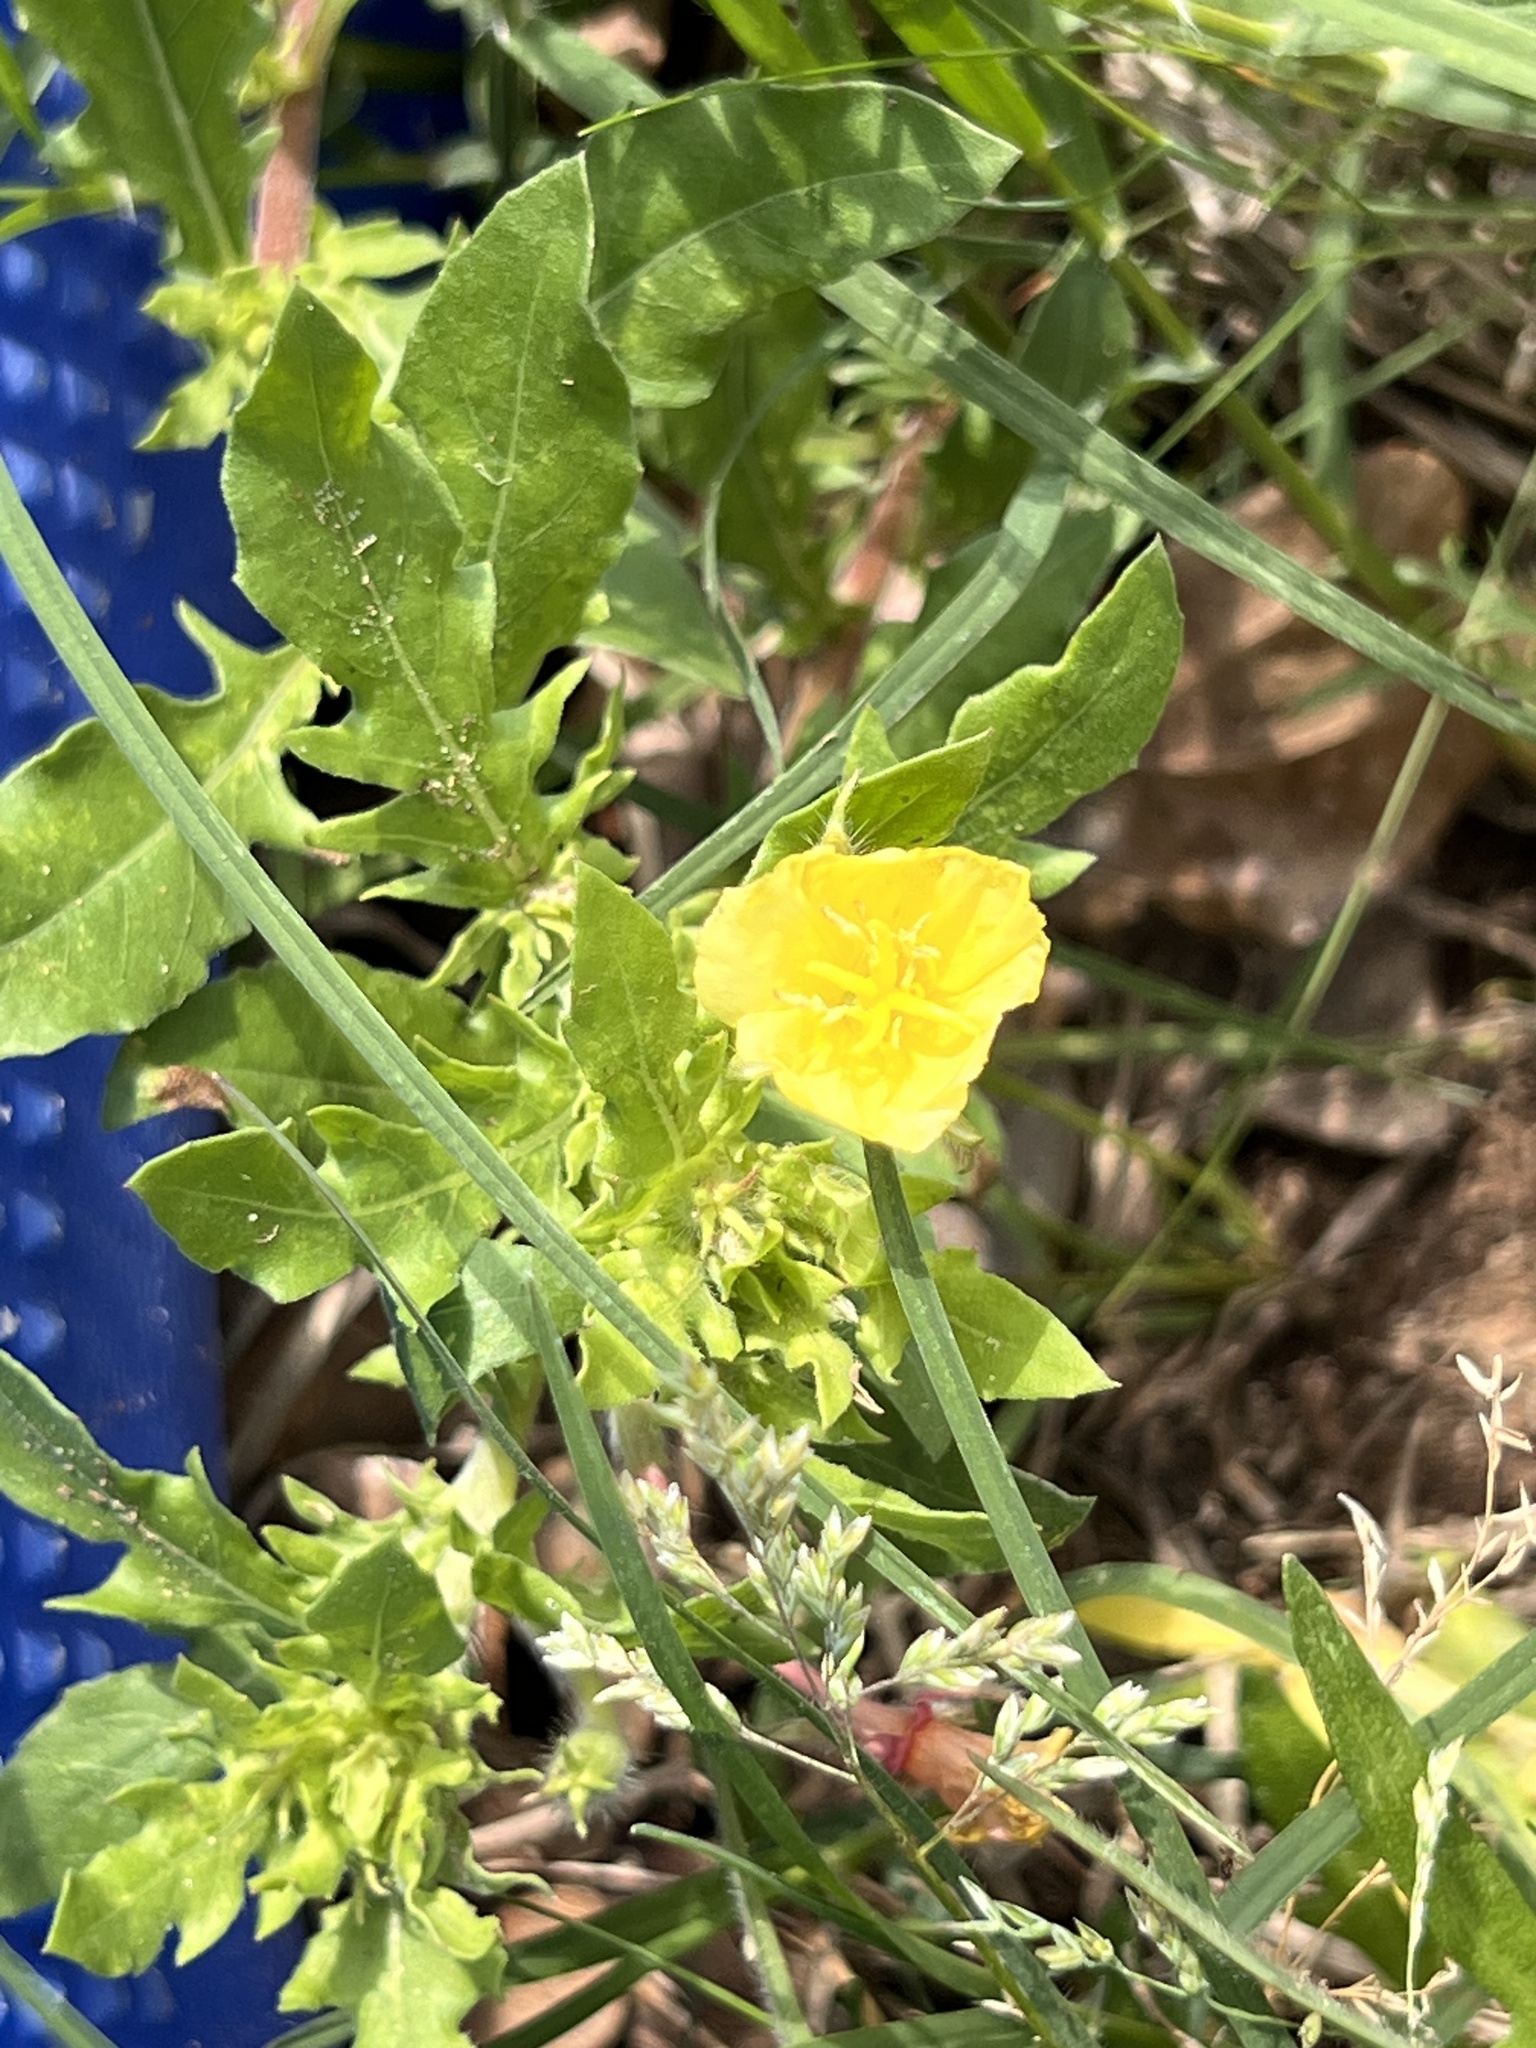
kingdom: Plantae
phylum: Tracheophyta
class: Magnoliopsida
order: Myrtales
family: Onagraceae
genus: Oenothera
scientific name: Oenothera laciniata
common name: Cut-leaved evening-primrose
